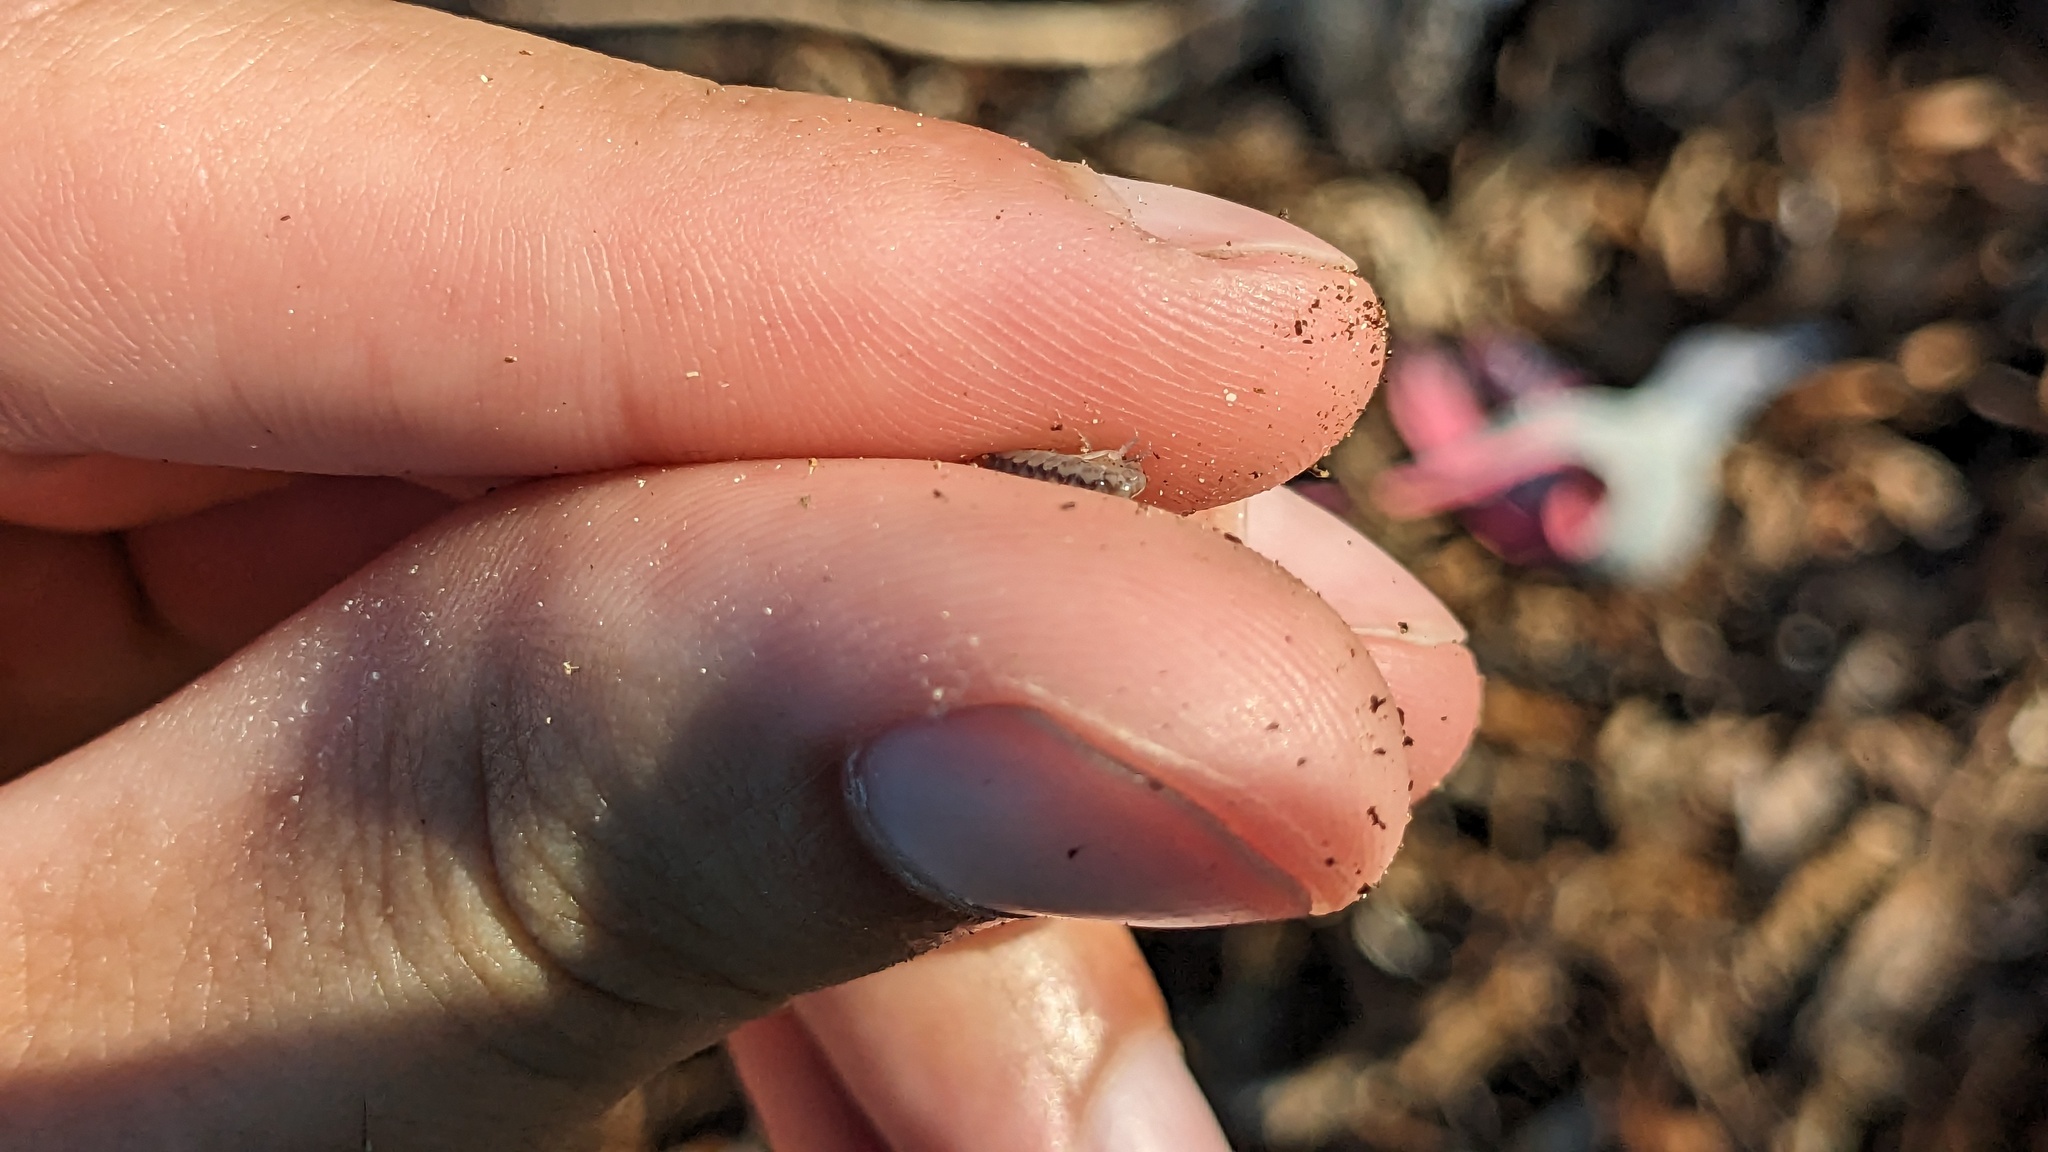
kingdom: Animalia
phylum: Arthropoda
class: Malacostraca
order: Amphipoda
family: Talitridae
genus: Mexorchestia
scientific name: Mexorchestia carpenteri
